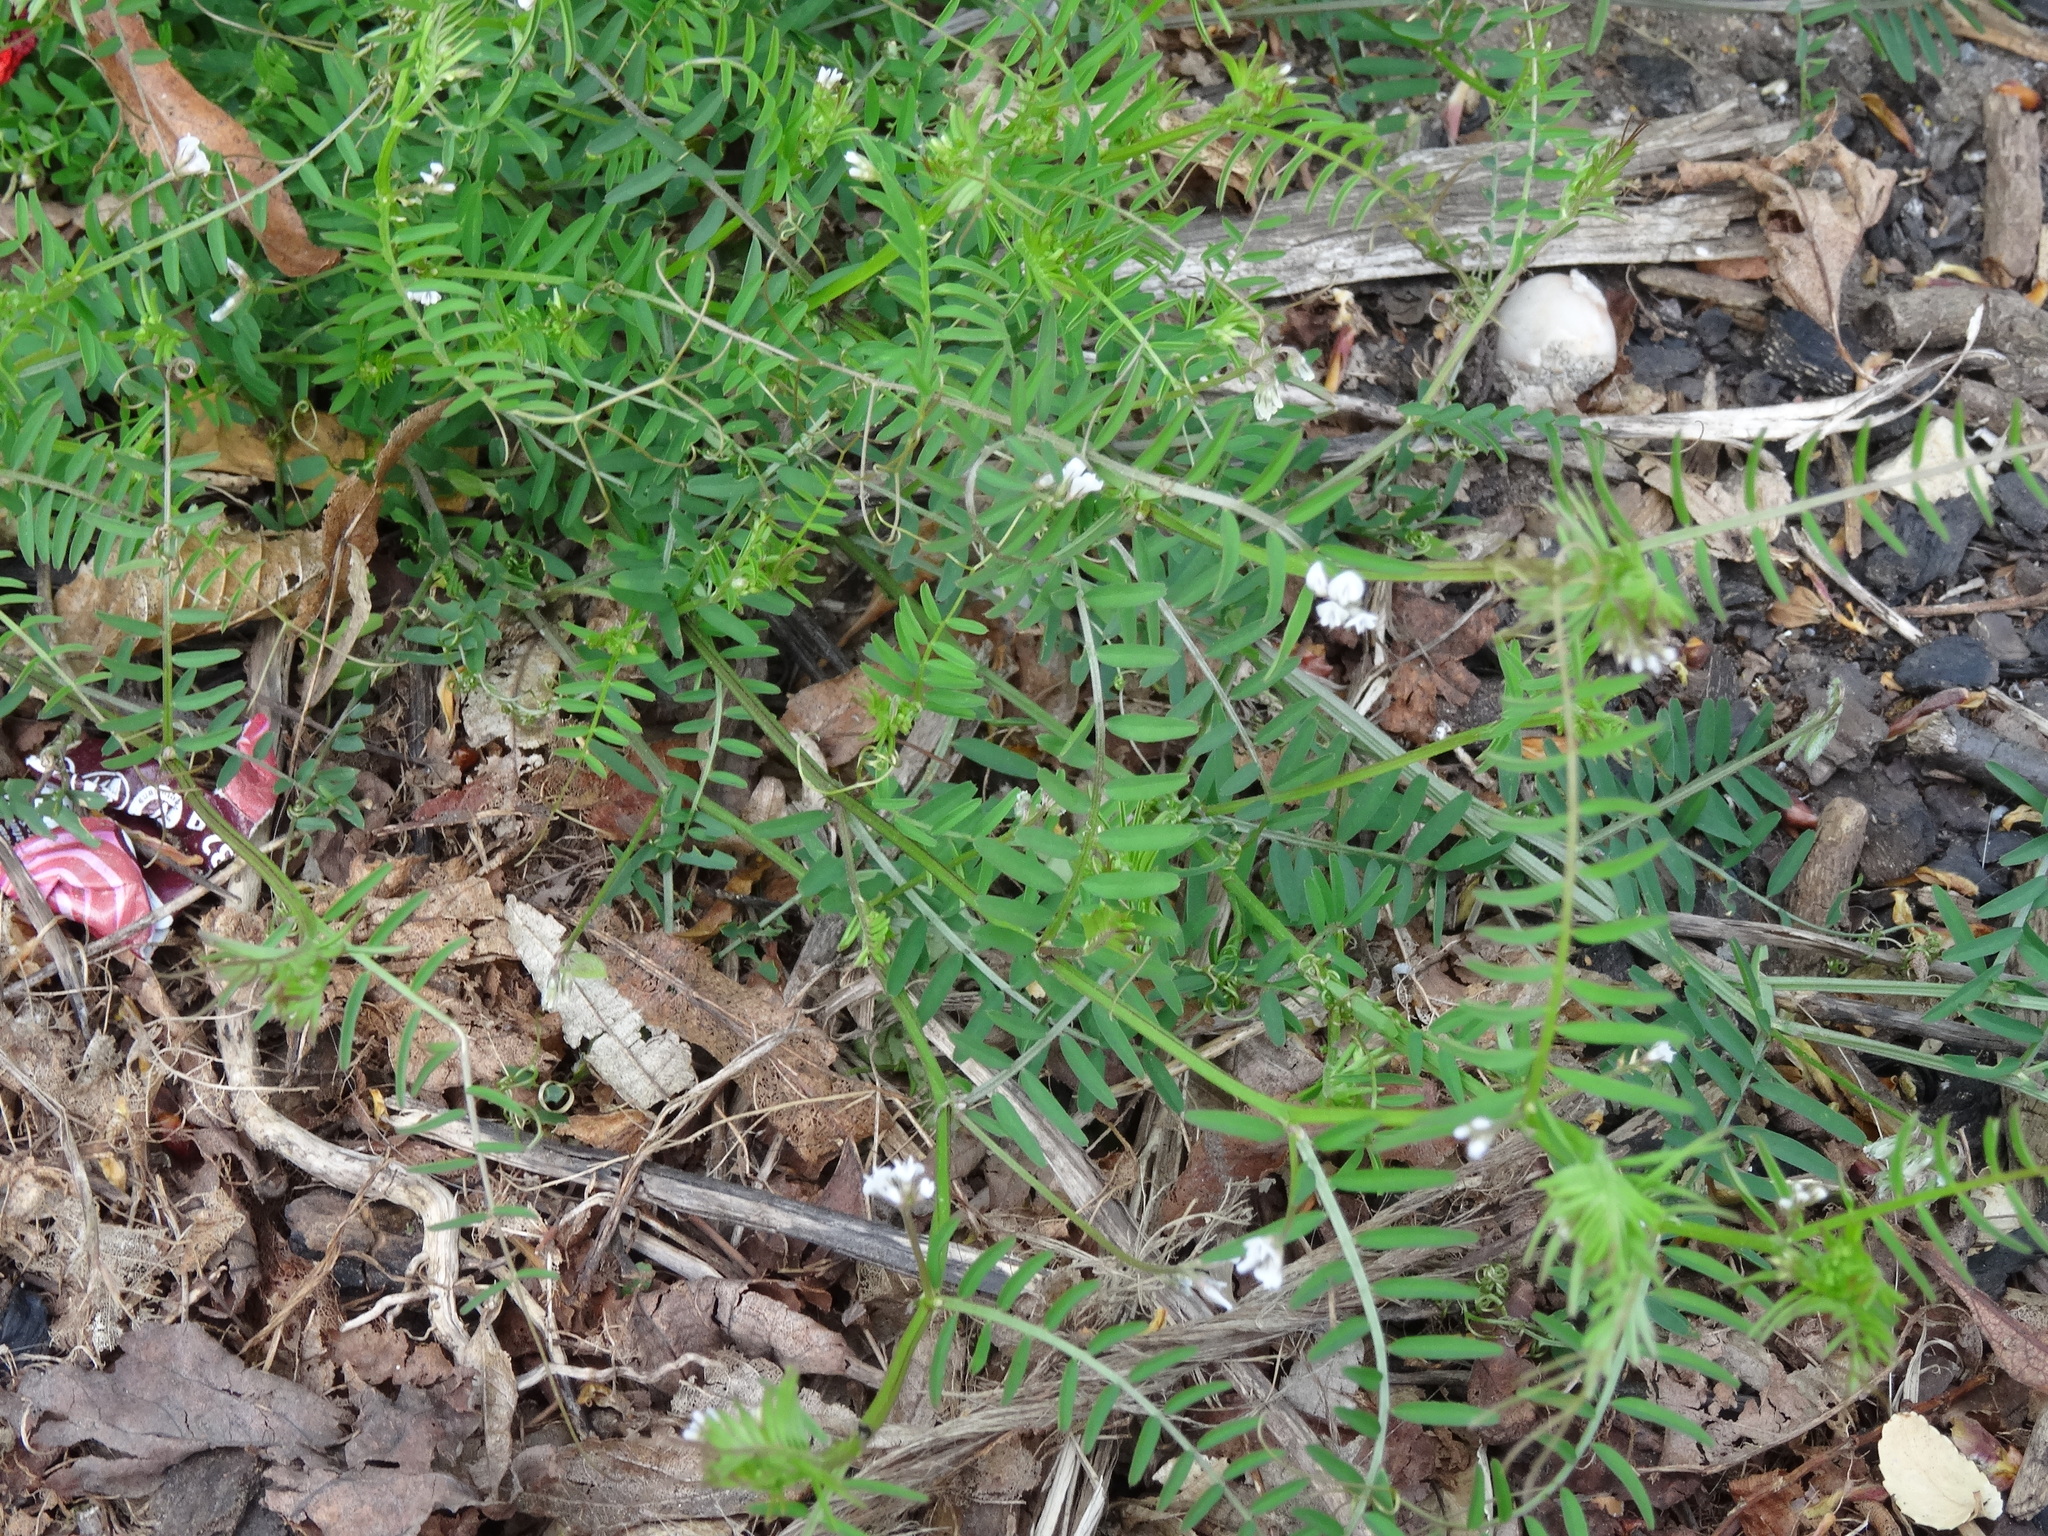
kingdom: Plantae
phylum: Tracheophyta
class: Magnoliopsida
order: Fabales
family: Fabaceae
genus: Vicia
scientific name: Vicia hirsuta
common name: Tiny vetch
